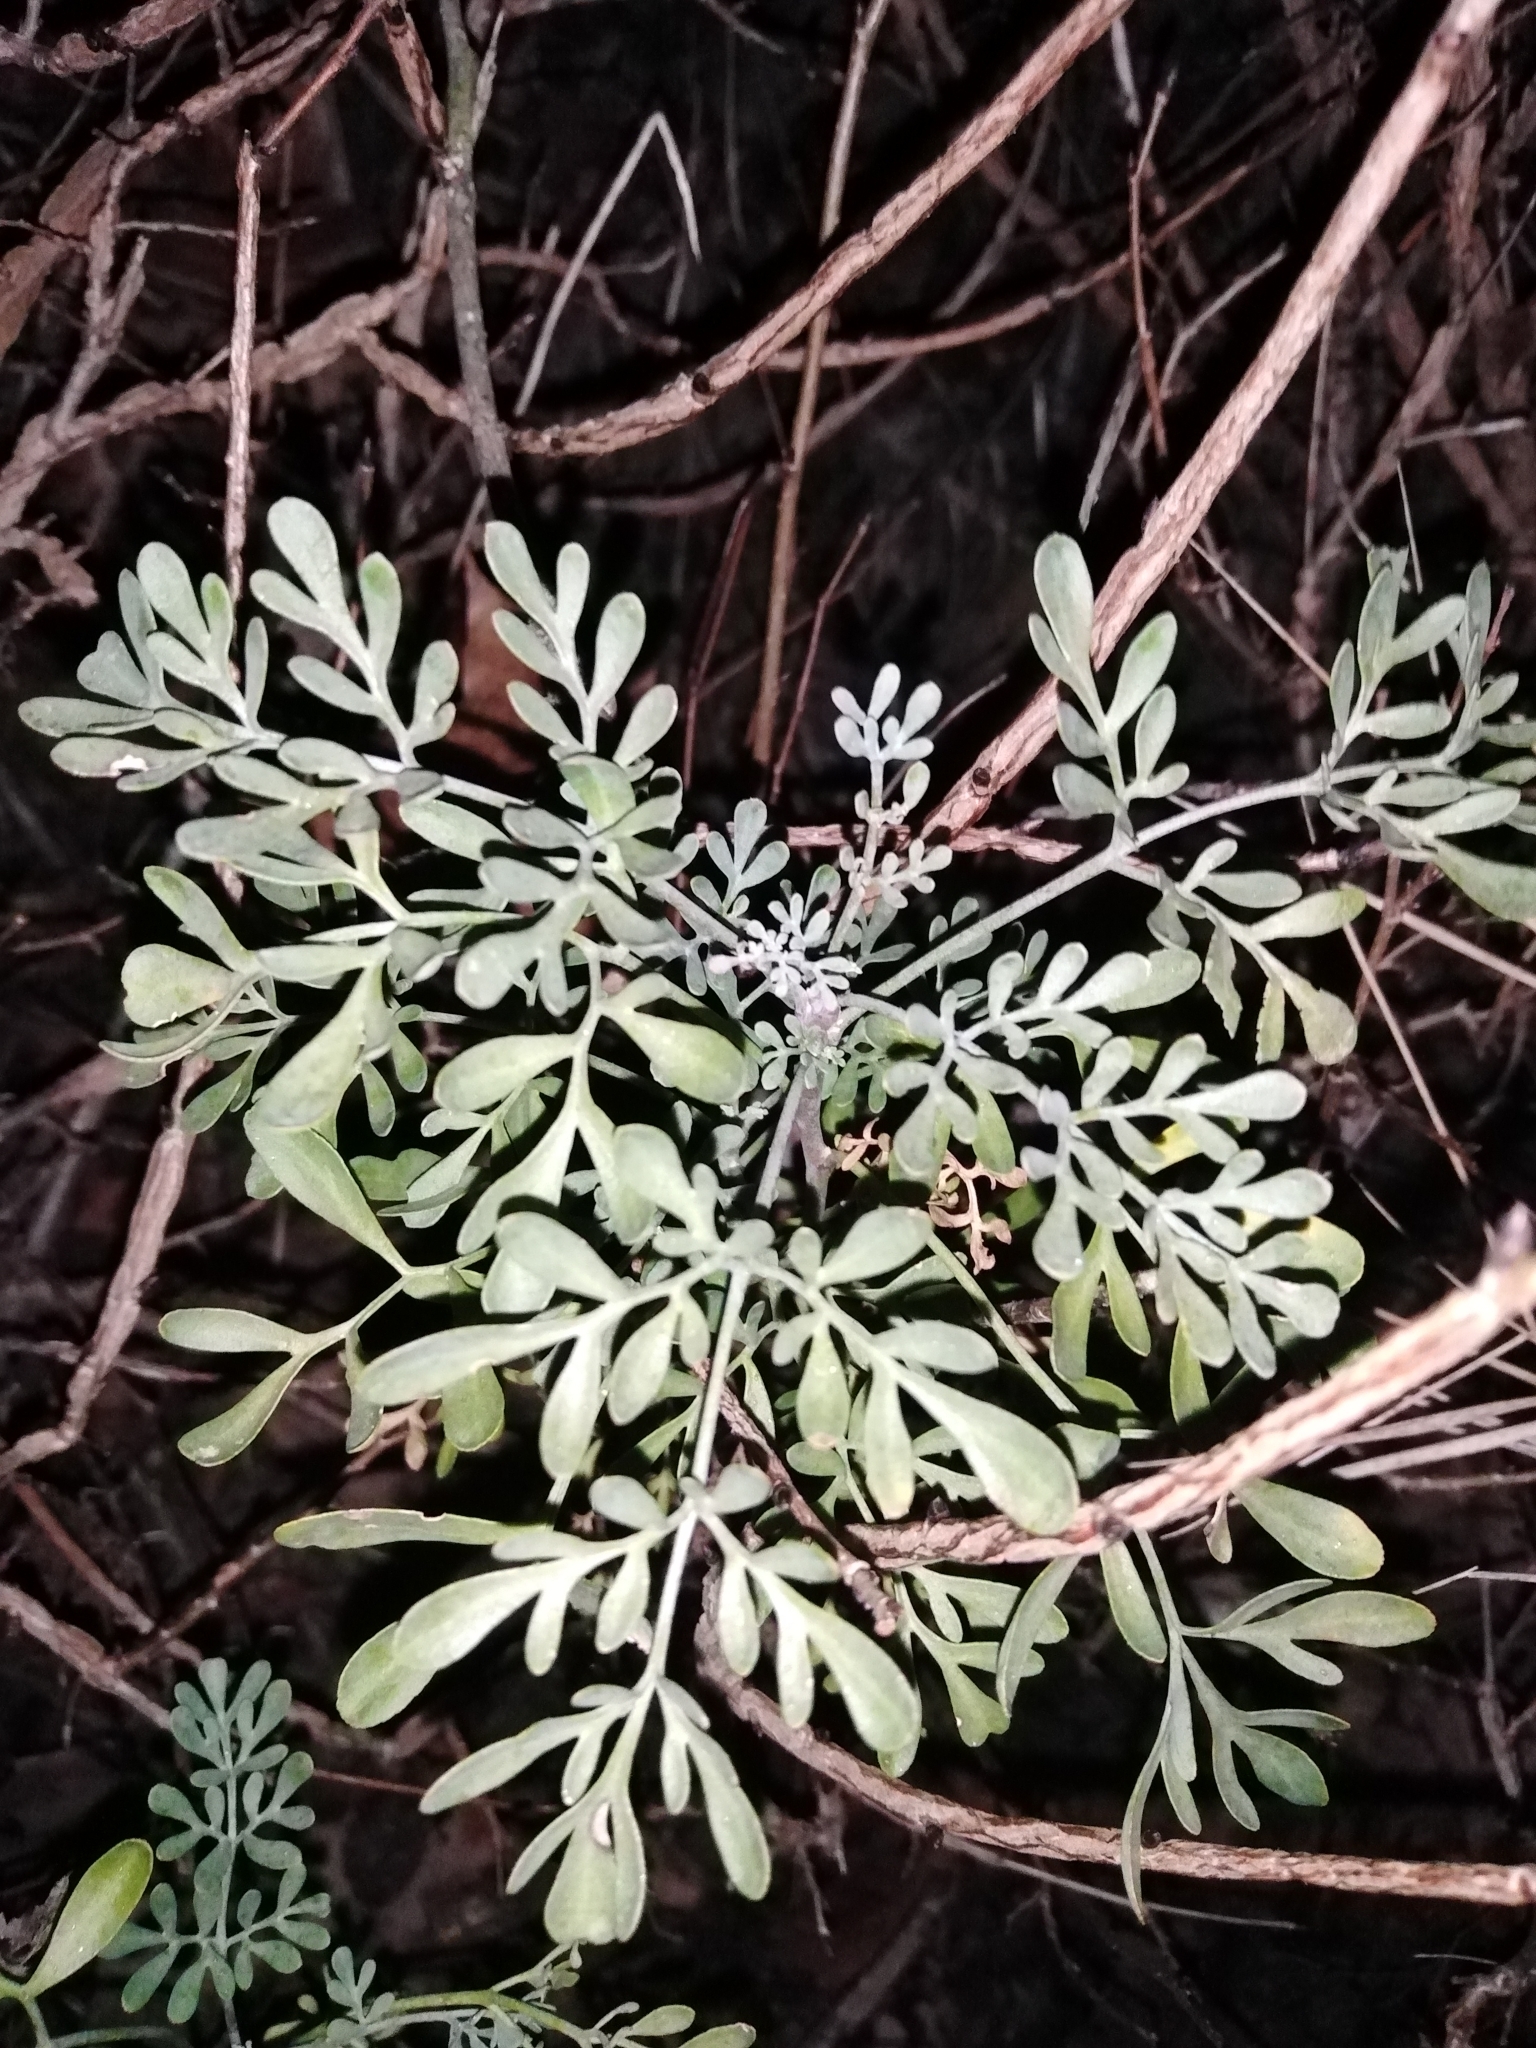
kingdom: Plantae
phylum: Tracheophyta
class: Magnoliopsida
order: Sapindales
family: Rutaceae
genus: Ruta
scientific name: Ruta graveolens
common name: Common rue
